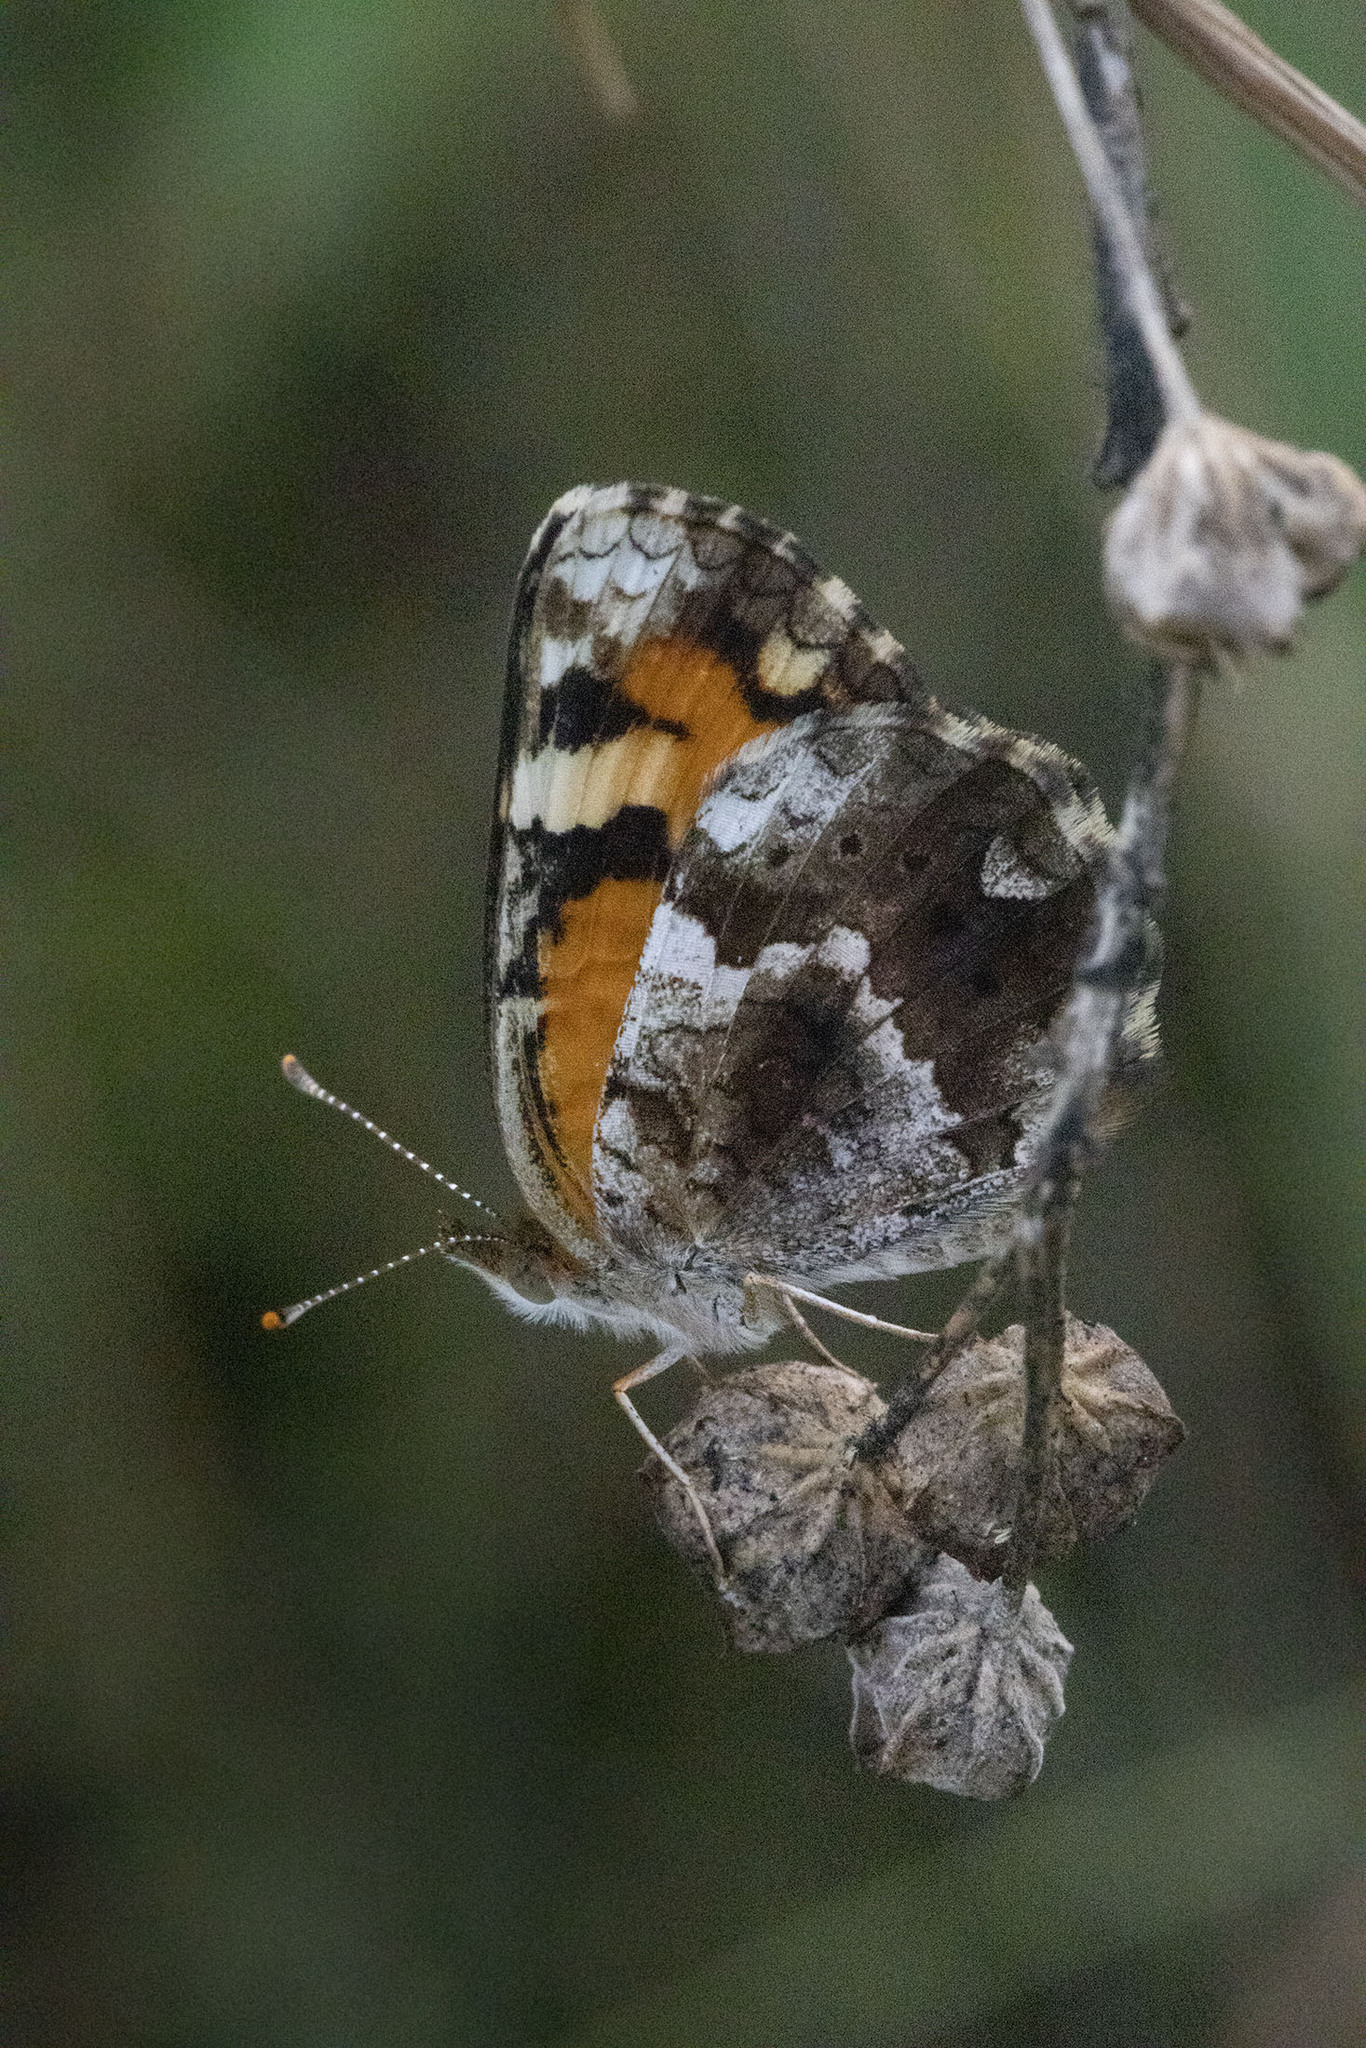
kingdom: Animalia
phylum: Arthropoda
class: Insecta
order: Lepidoptera
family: Nymphalidae
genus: Phyciodes
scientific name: Phyciodes phaon
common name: Phaon crescent
